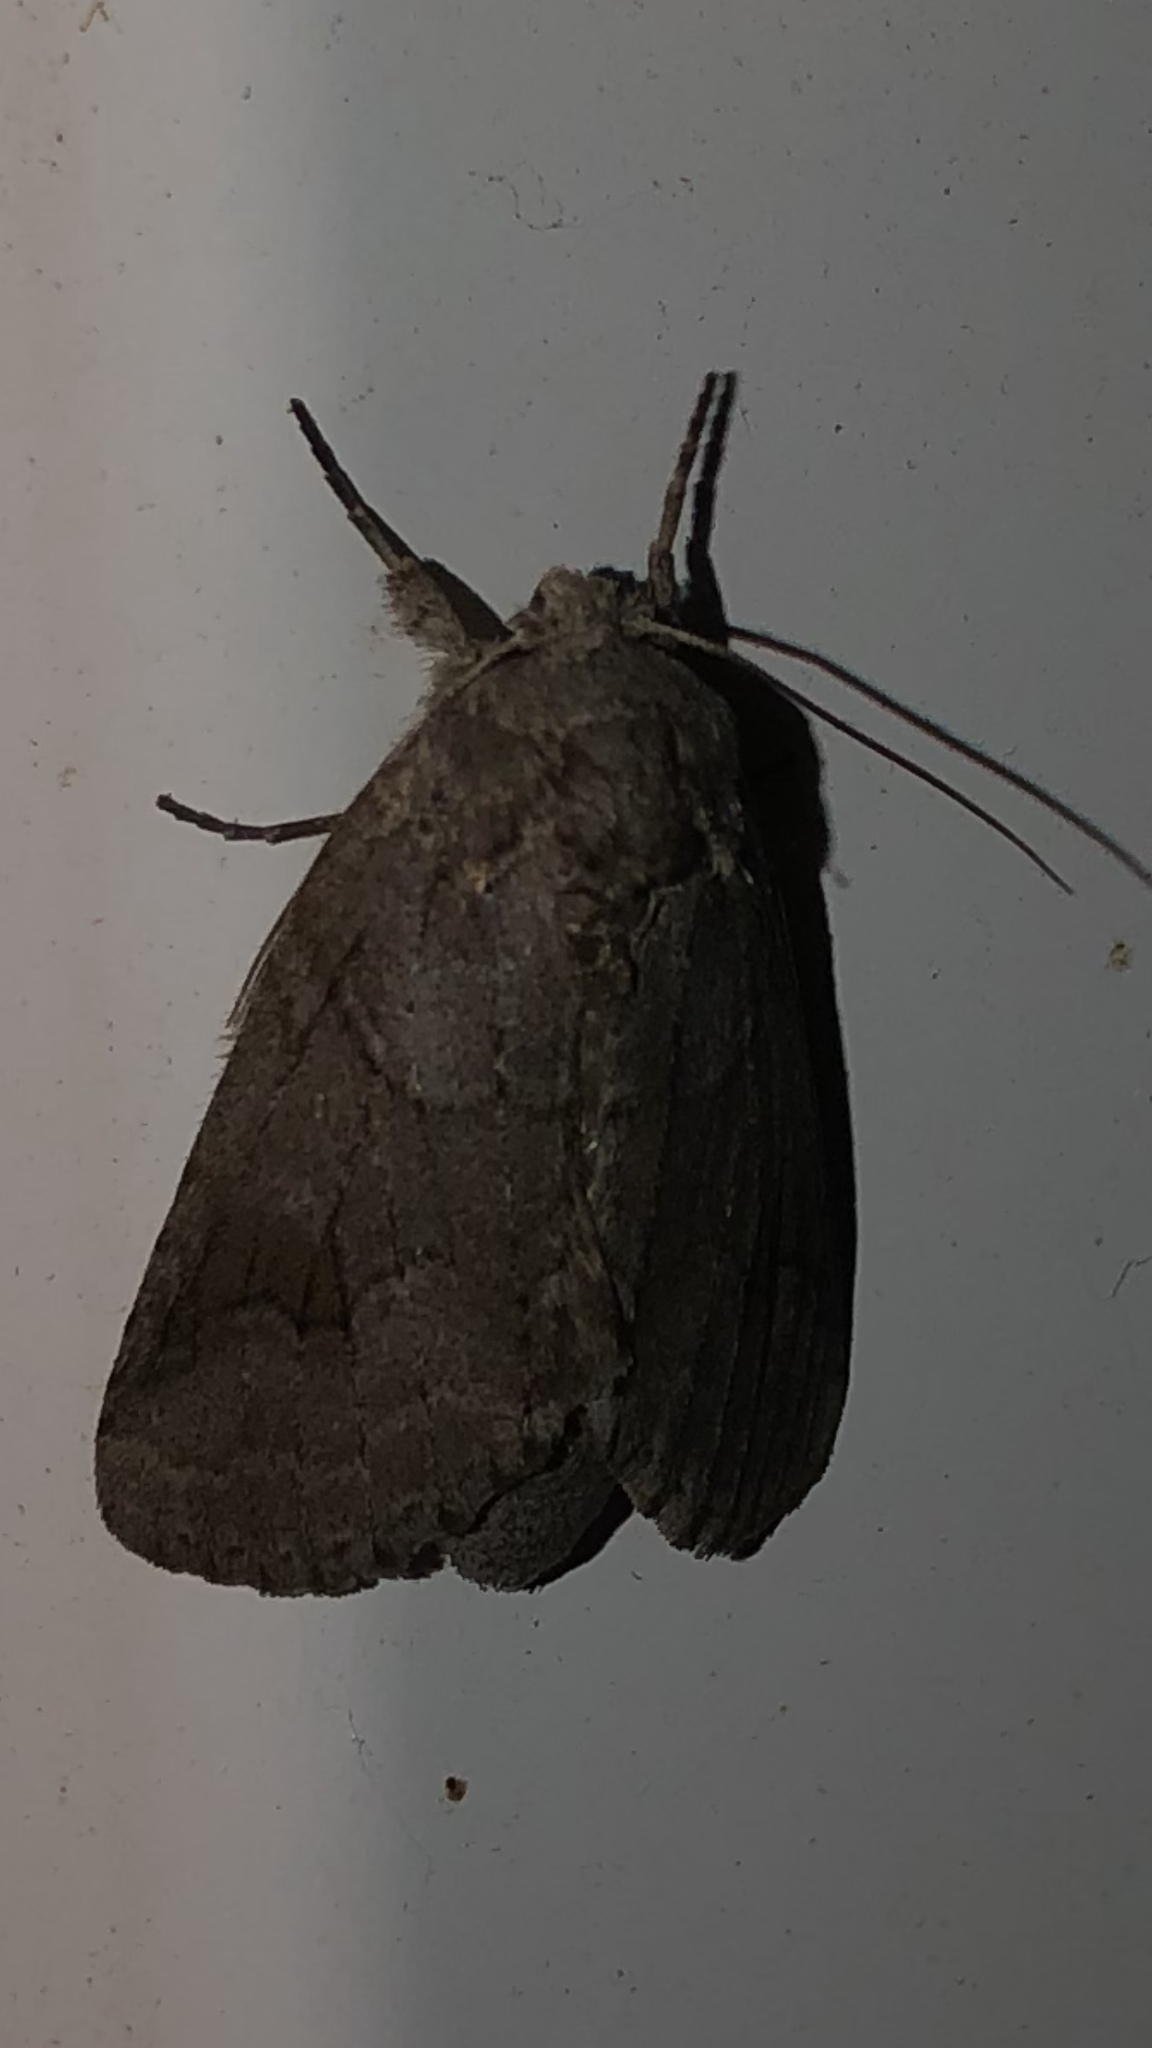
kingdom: Animalia
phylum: Arthropoda
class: Insecta
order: Lepidoptera
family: Notodontidae
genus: Lochmaeus
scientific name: Lochmaeus bilineata
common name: Double-lined prominent
